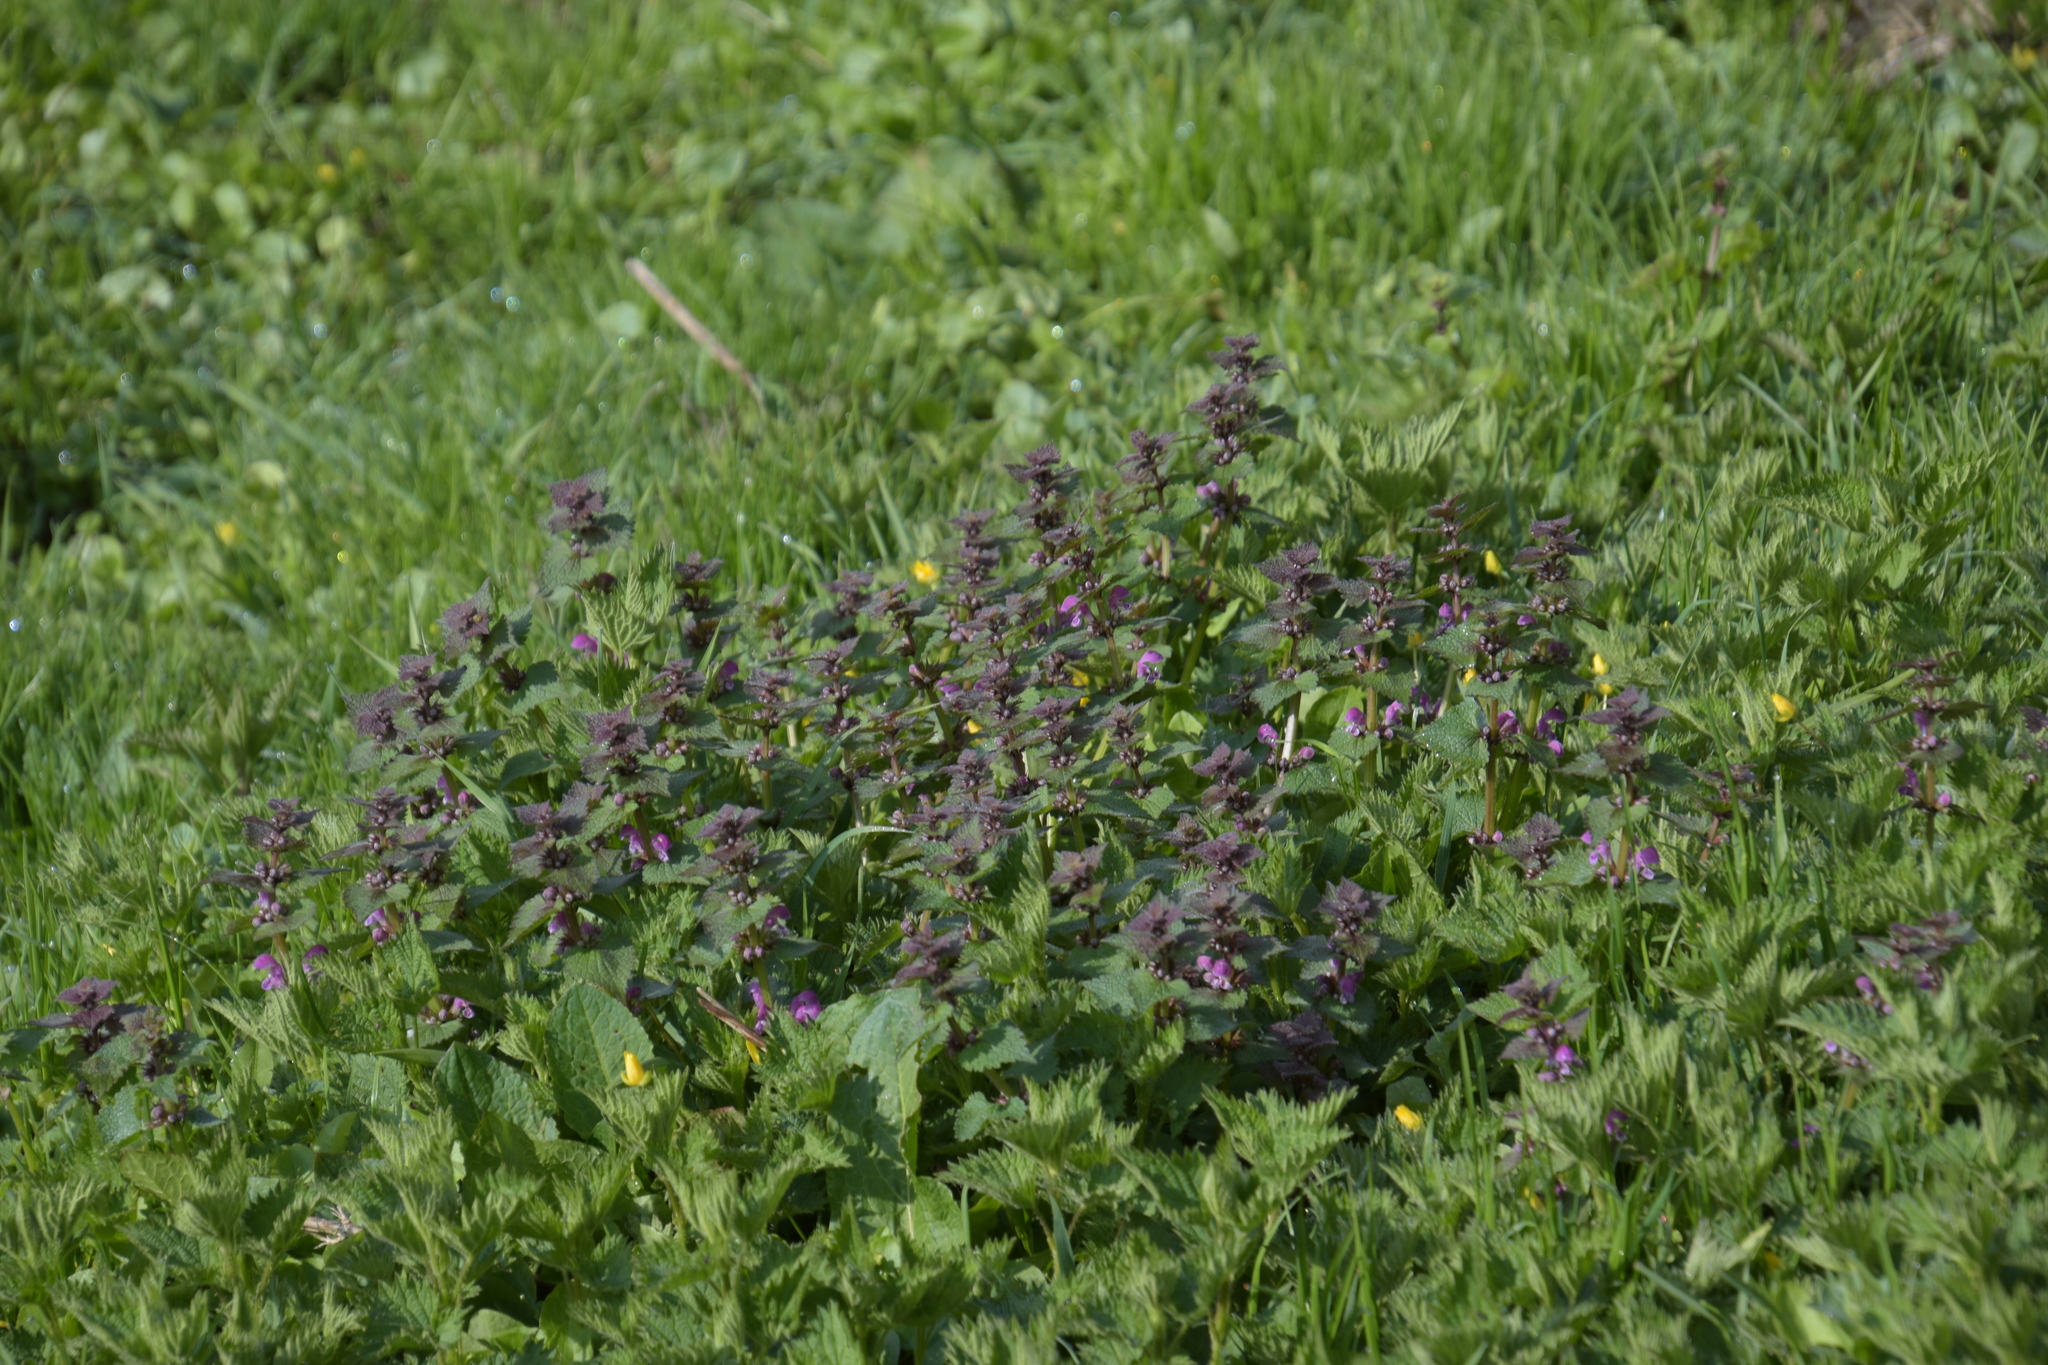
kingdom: Plantae
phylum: Tracheophyta
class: Magnoliopsida
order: Lamiales
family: Lamiaceae
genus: Lamium
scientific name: Lamium maculatum
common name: Spotted dead-nettle
